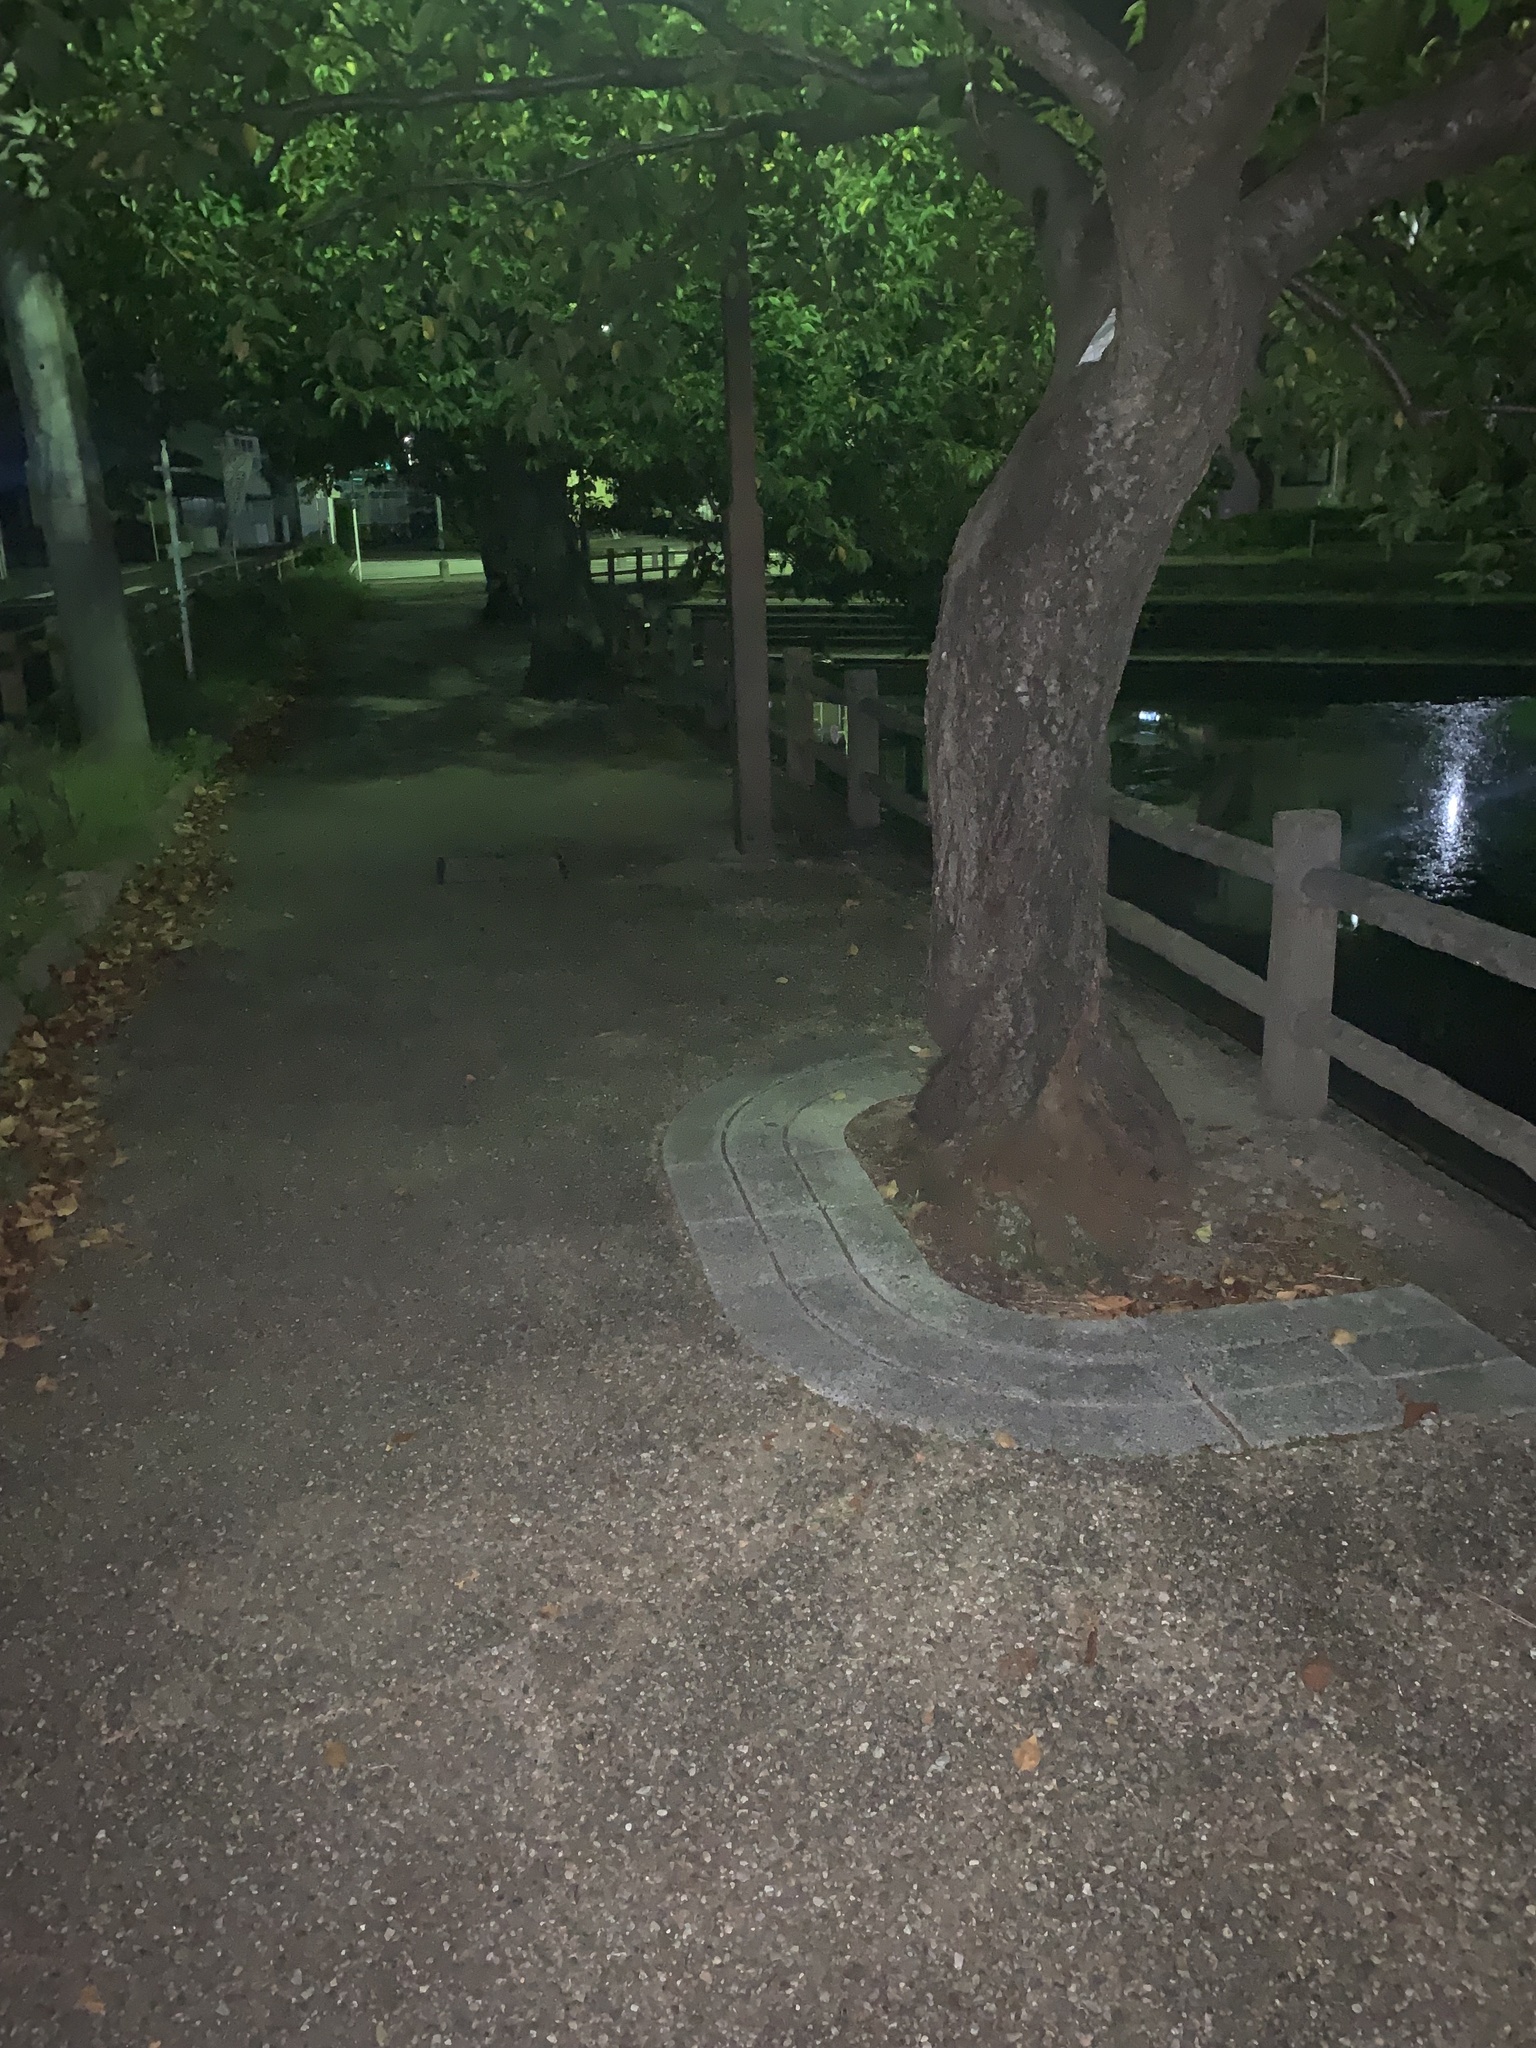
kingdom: Animalia
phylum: Arthropoda
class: Insecta
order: Orthoptera
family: Gryllidae
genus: Truljalia
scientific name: Truljalia hibinonis
